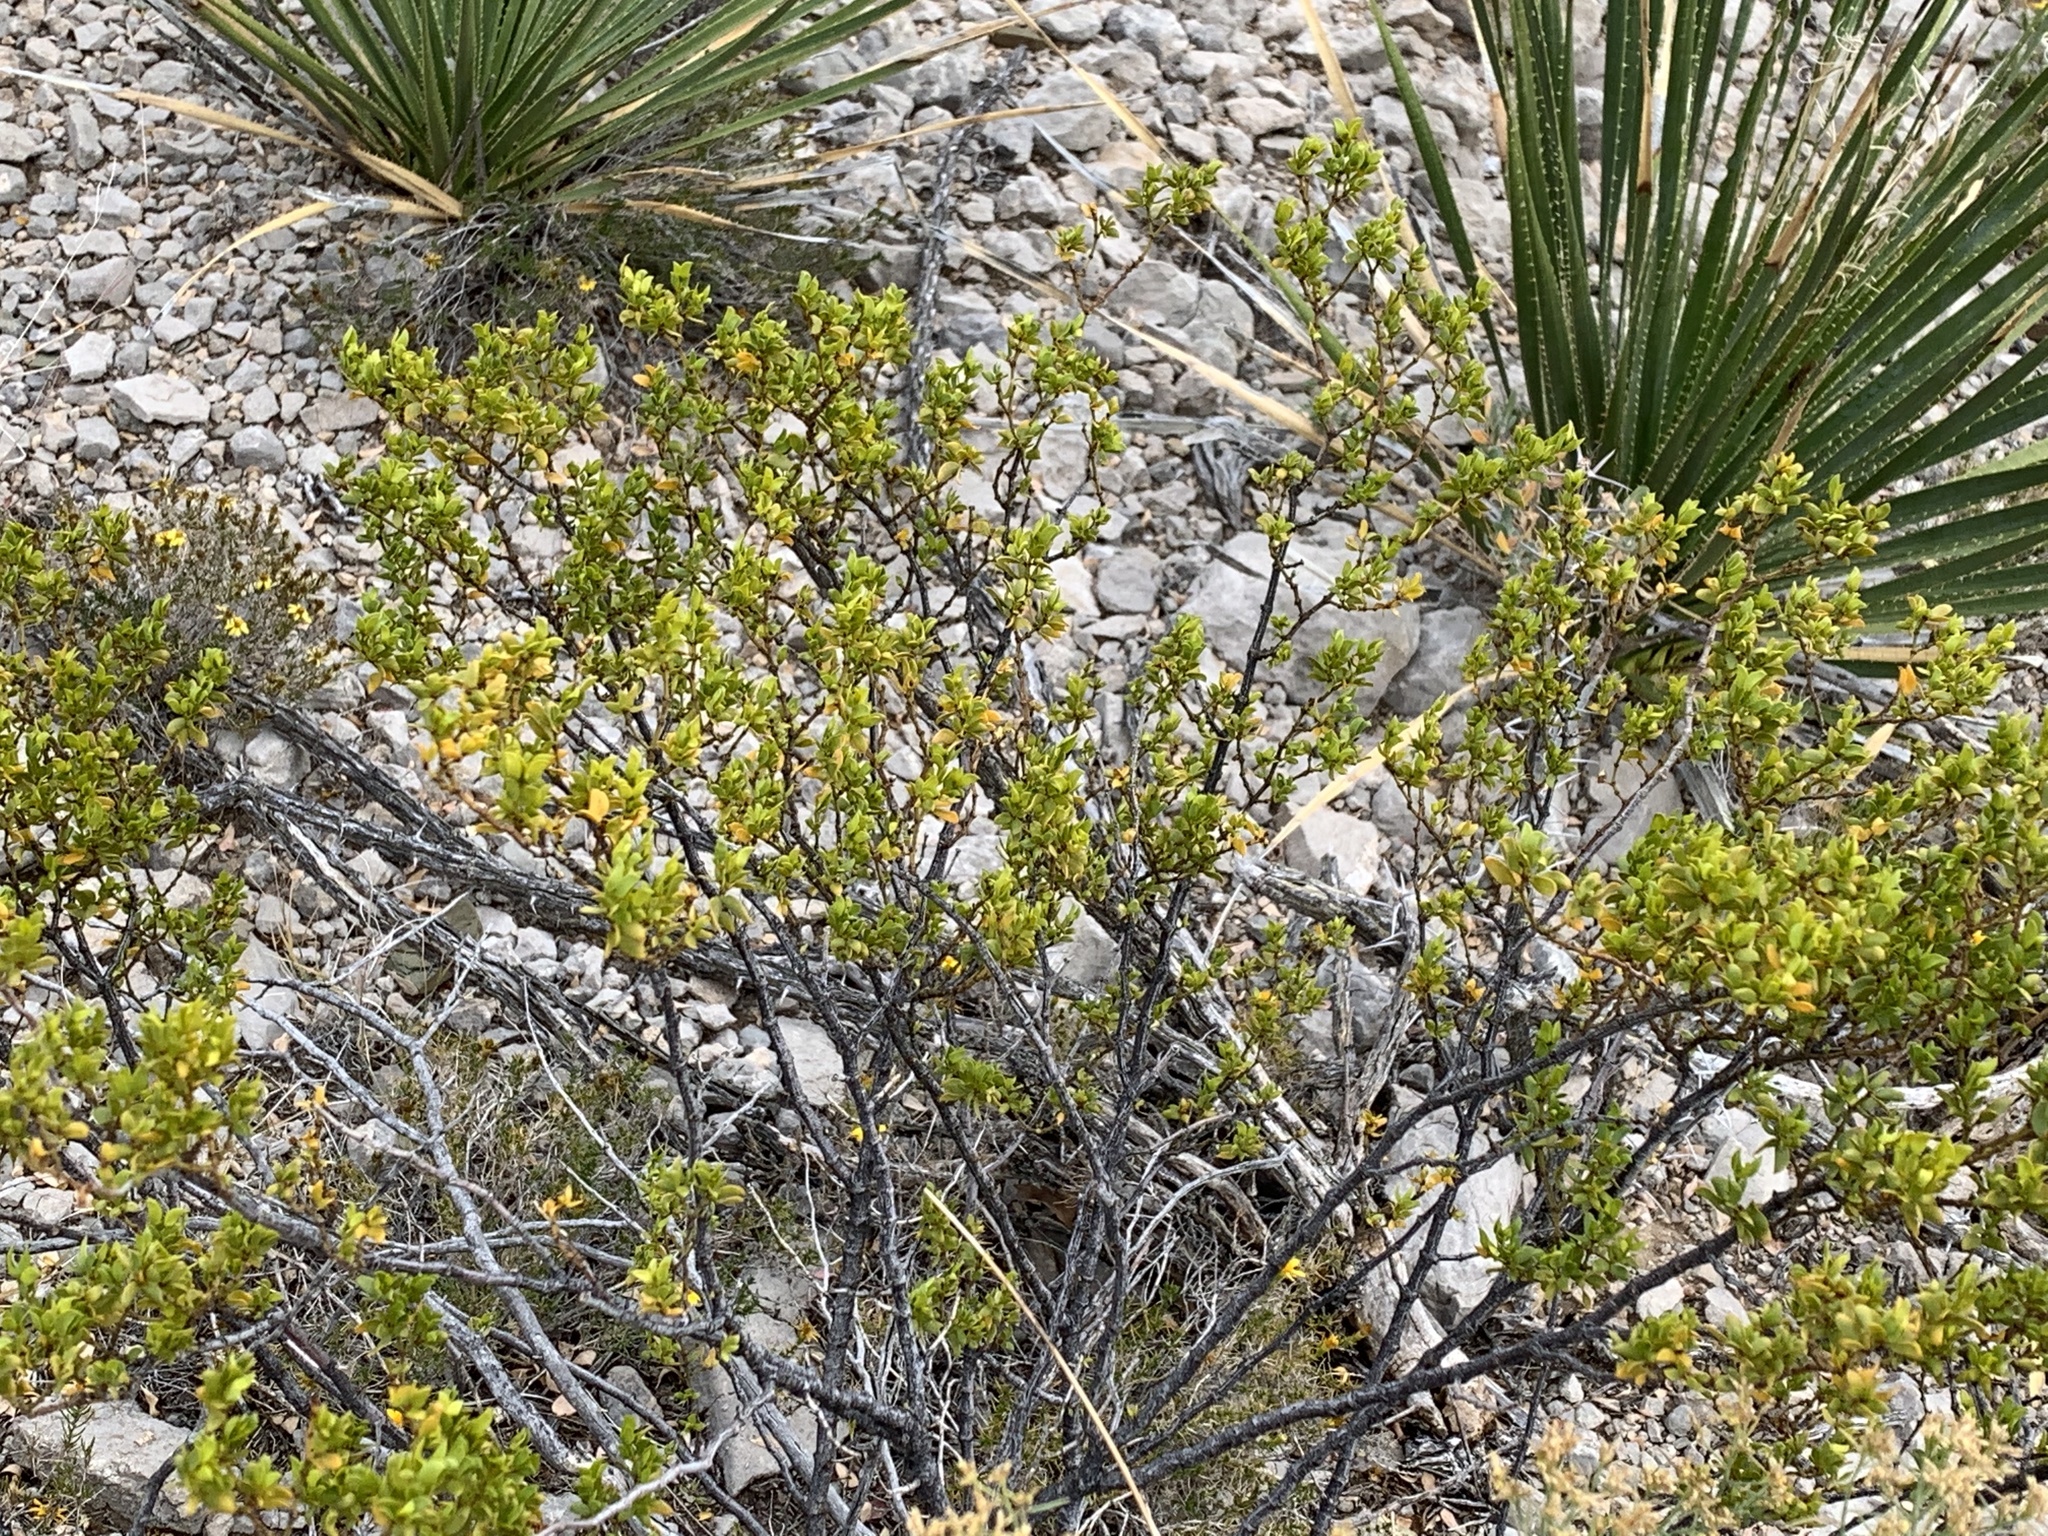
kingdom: Plantae
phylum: Tracheophyta
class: Magnoliopsida
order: Zygophyllales
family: Zygophyllaceae
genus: Larrea
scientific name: Larrea tridentata
